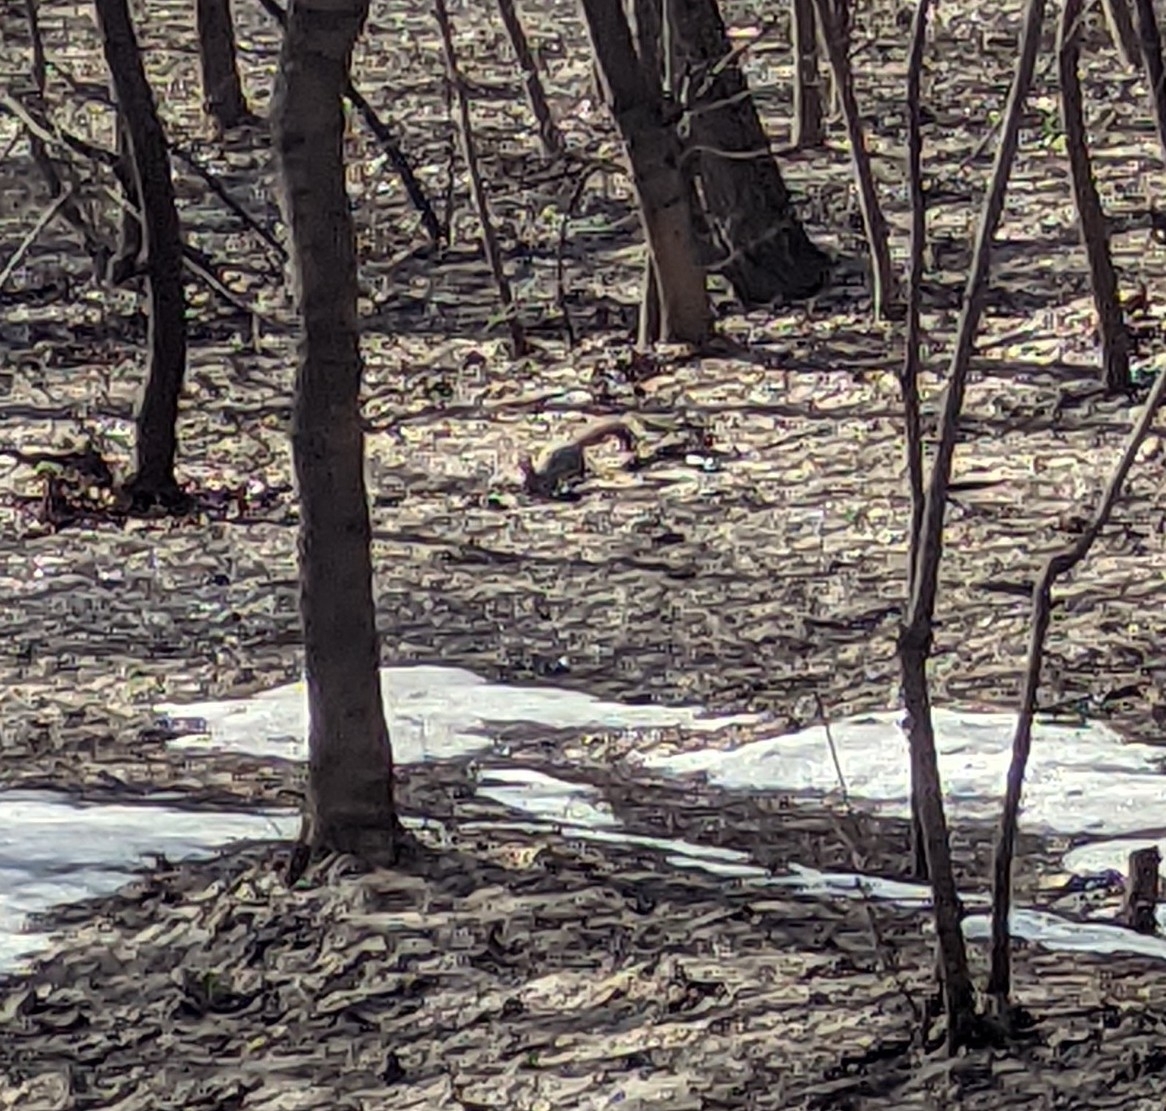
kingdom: Animalia
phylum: Chordata
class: Mammalia
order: Rodentia
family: Sciuridae
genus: Sciurus
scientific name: Sciurus vulgaris
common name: Eurasian red squirrel
